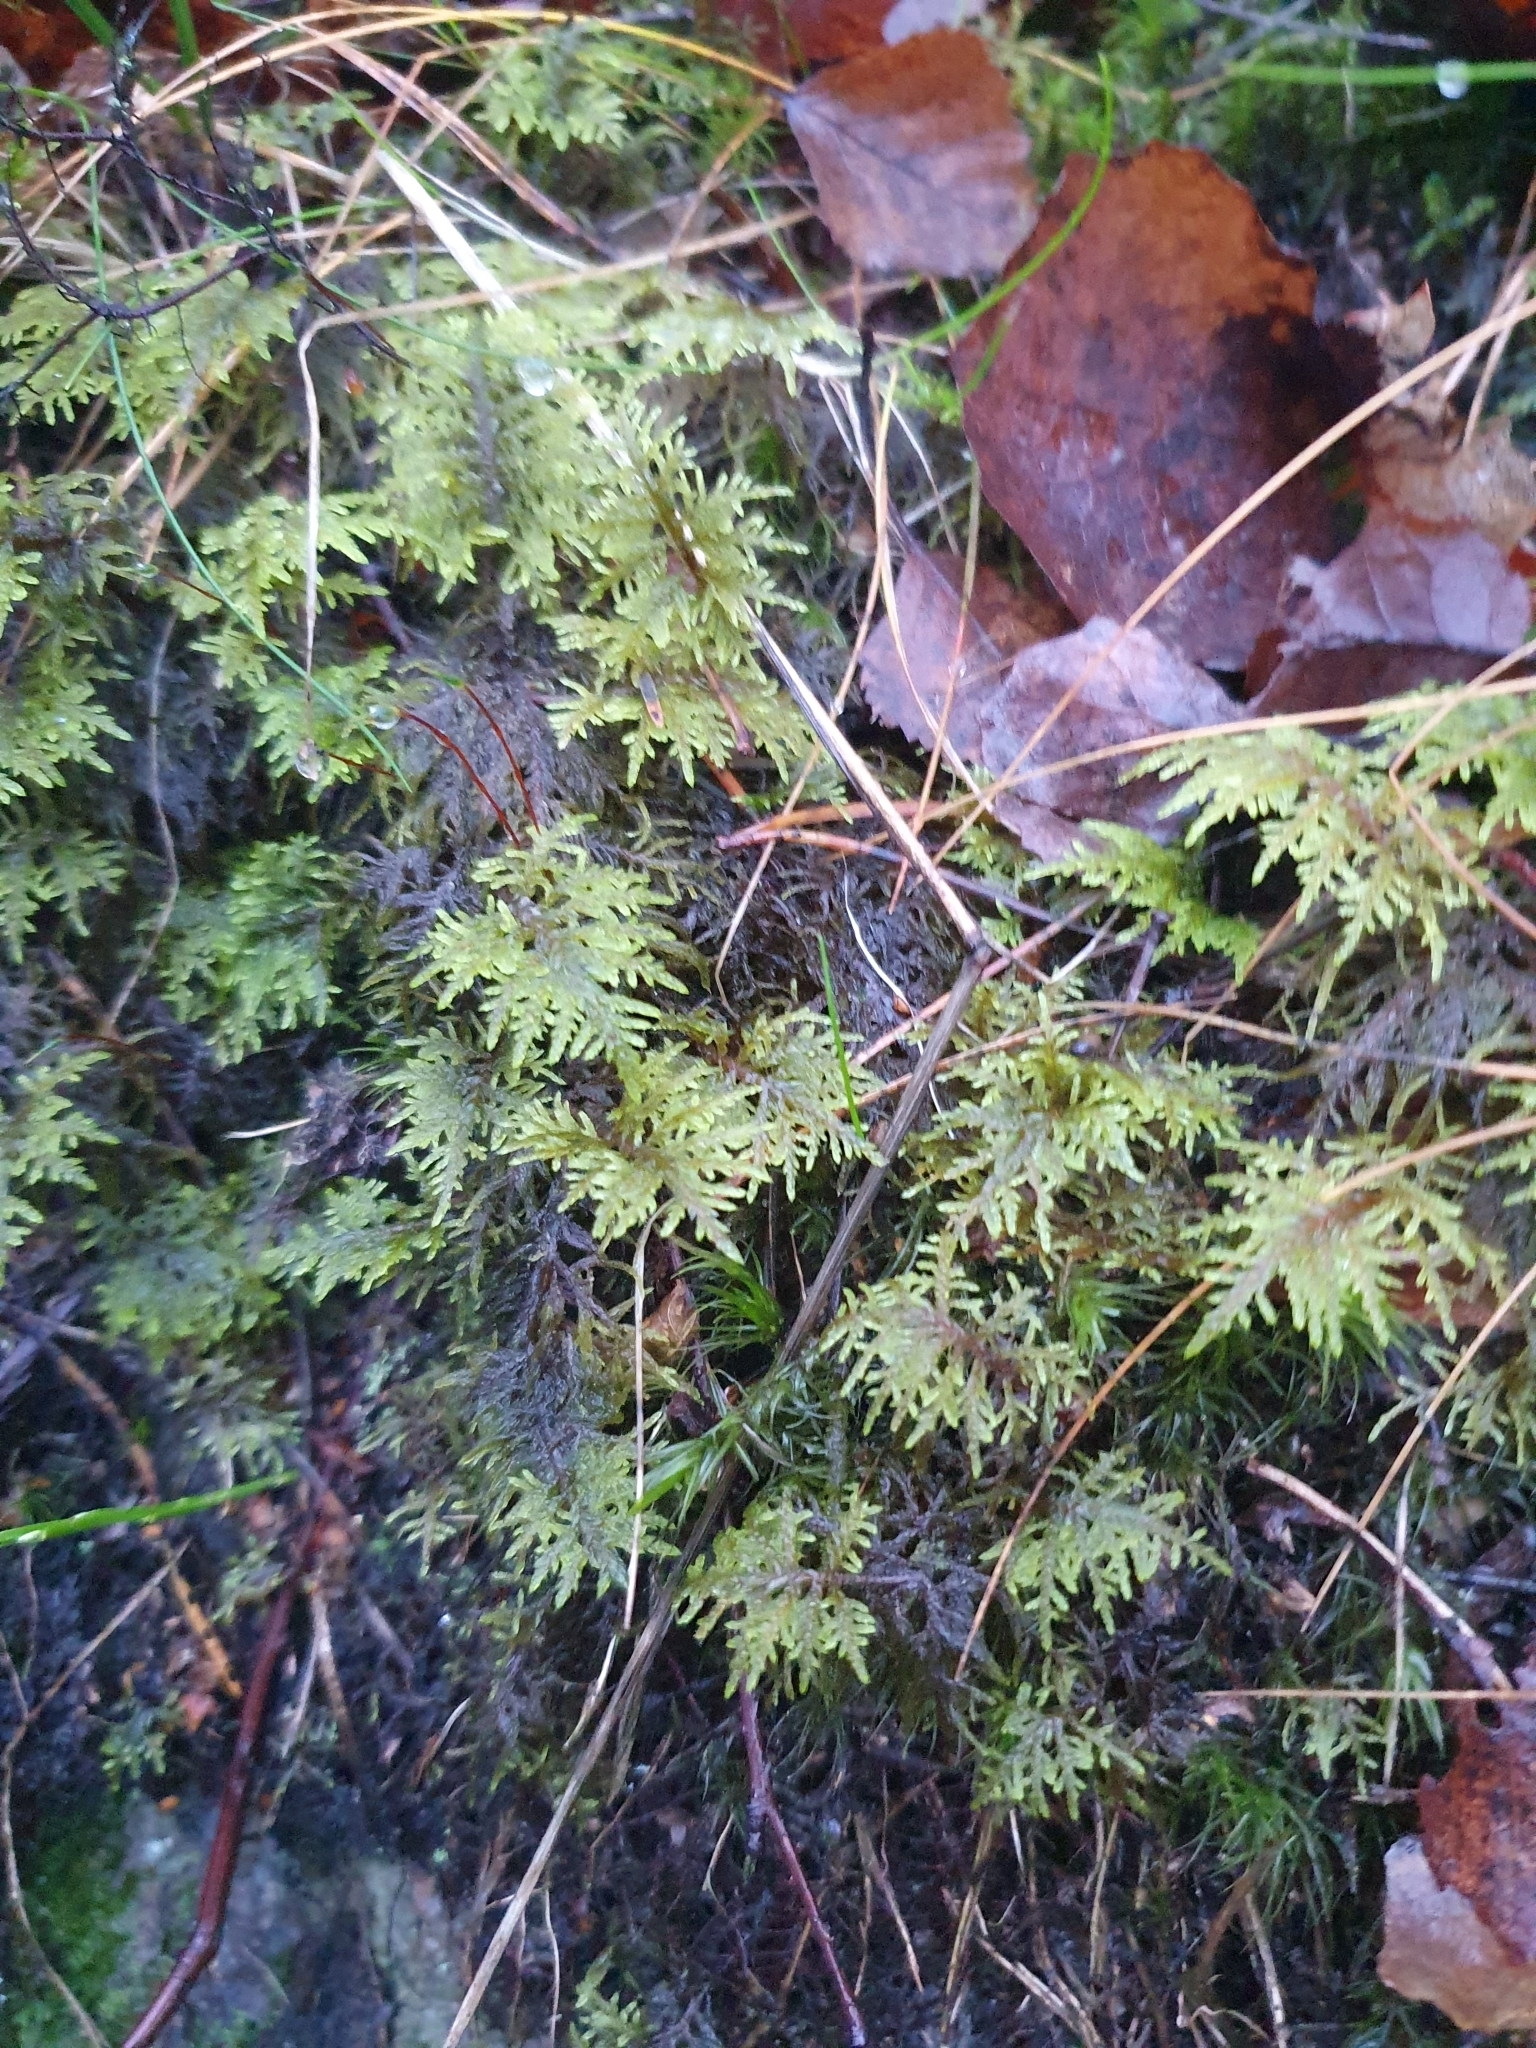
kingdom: Plantae
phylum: Bryophyta
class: Bryopsida
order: Hypnales
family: Hylocomiaceae
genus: Hylocomium
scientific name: Hylocomium splendens
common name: Stairstep moss
